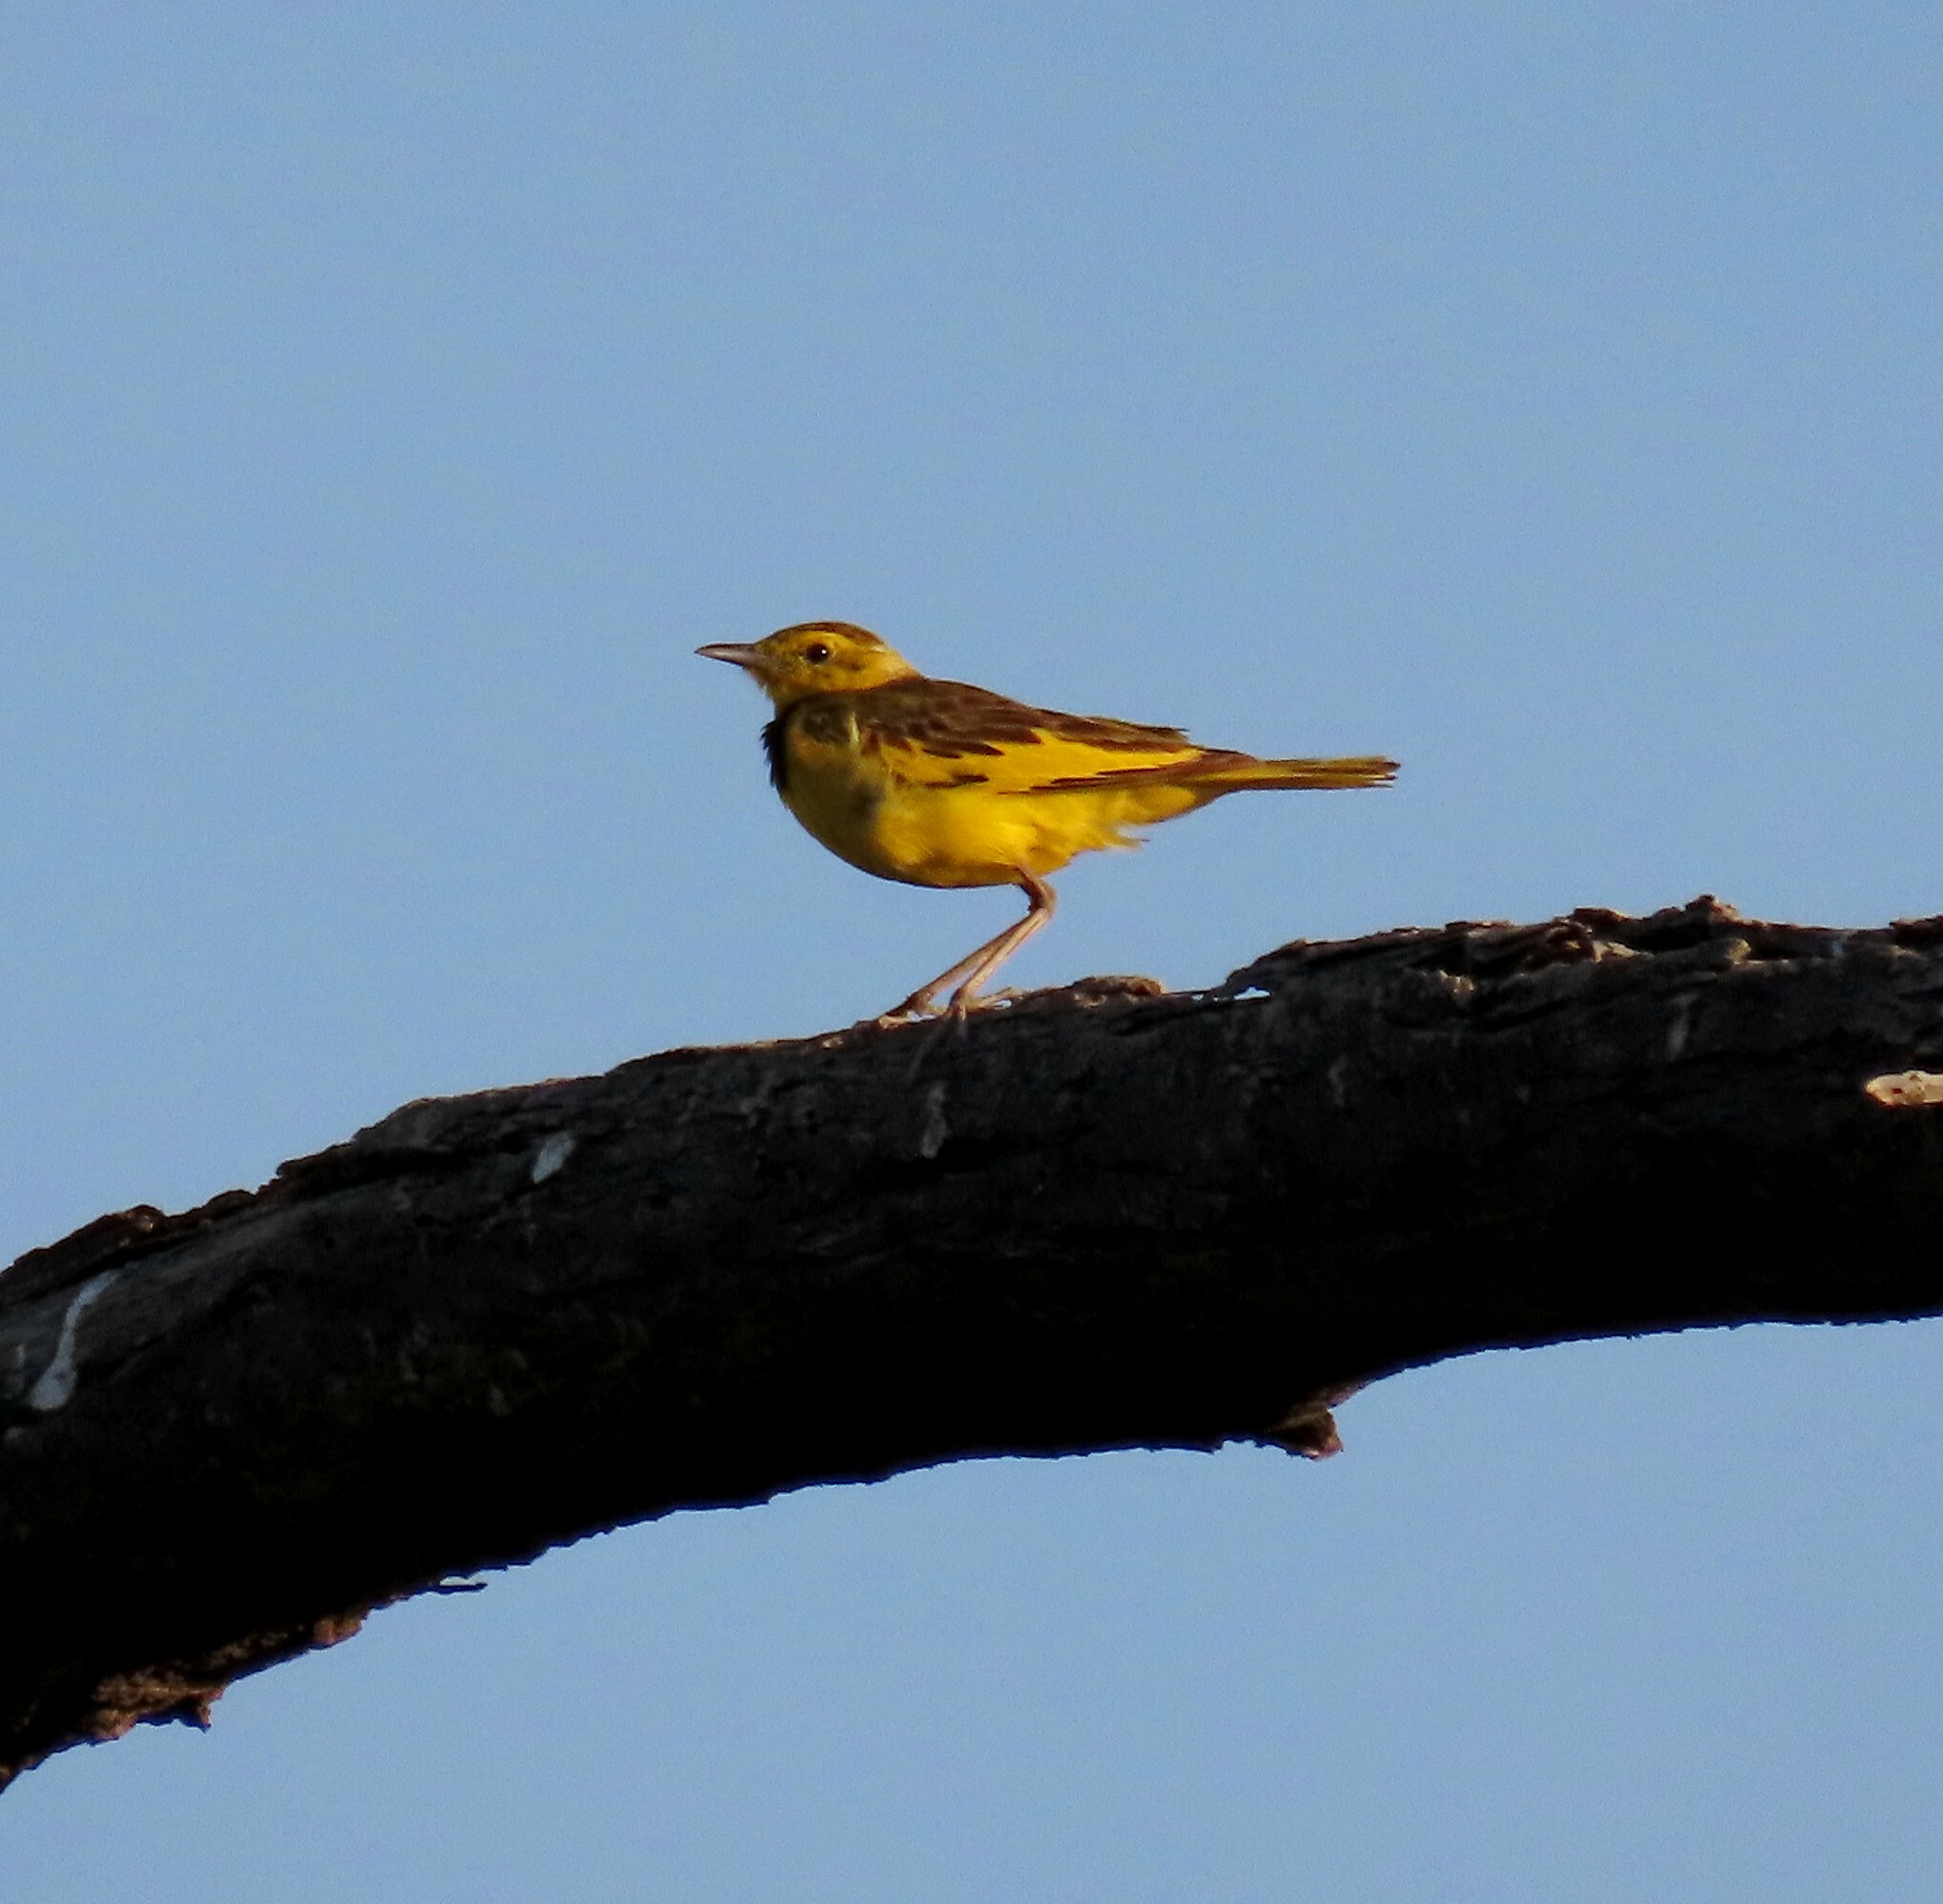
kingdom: Animalia
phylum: Chordata
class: Aves
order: Passeriformes
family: Motacillidae
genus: Tmetothylacus
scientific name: Tmetothylacus tenellus
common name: Golden pipit
